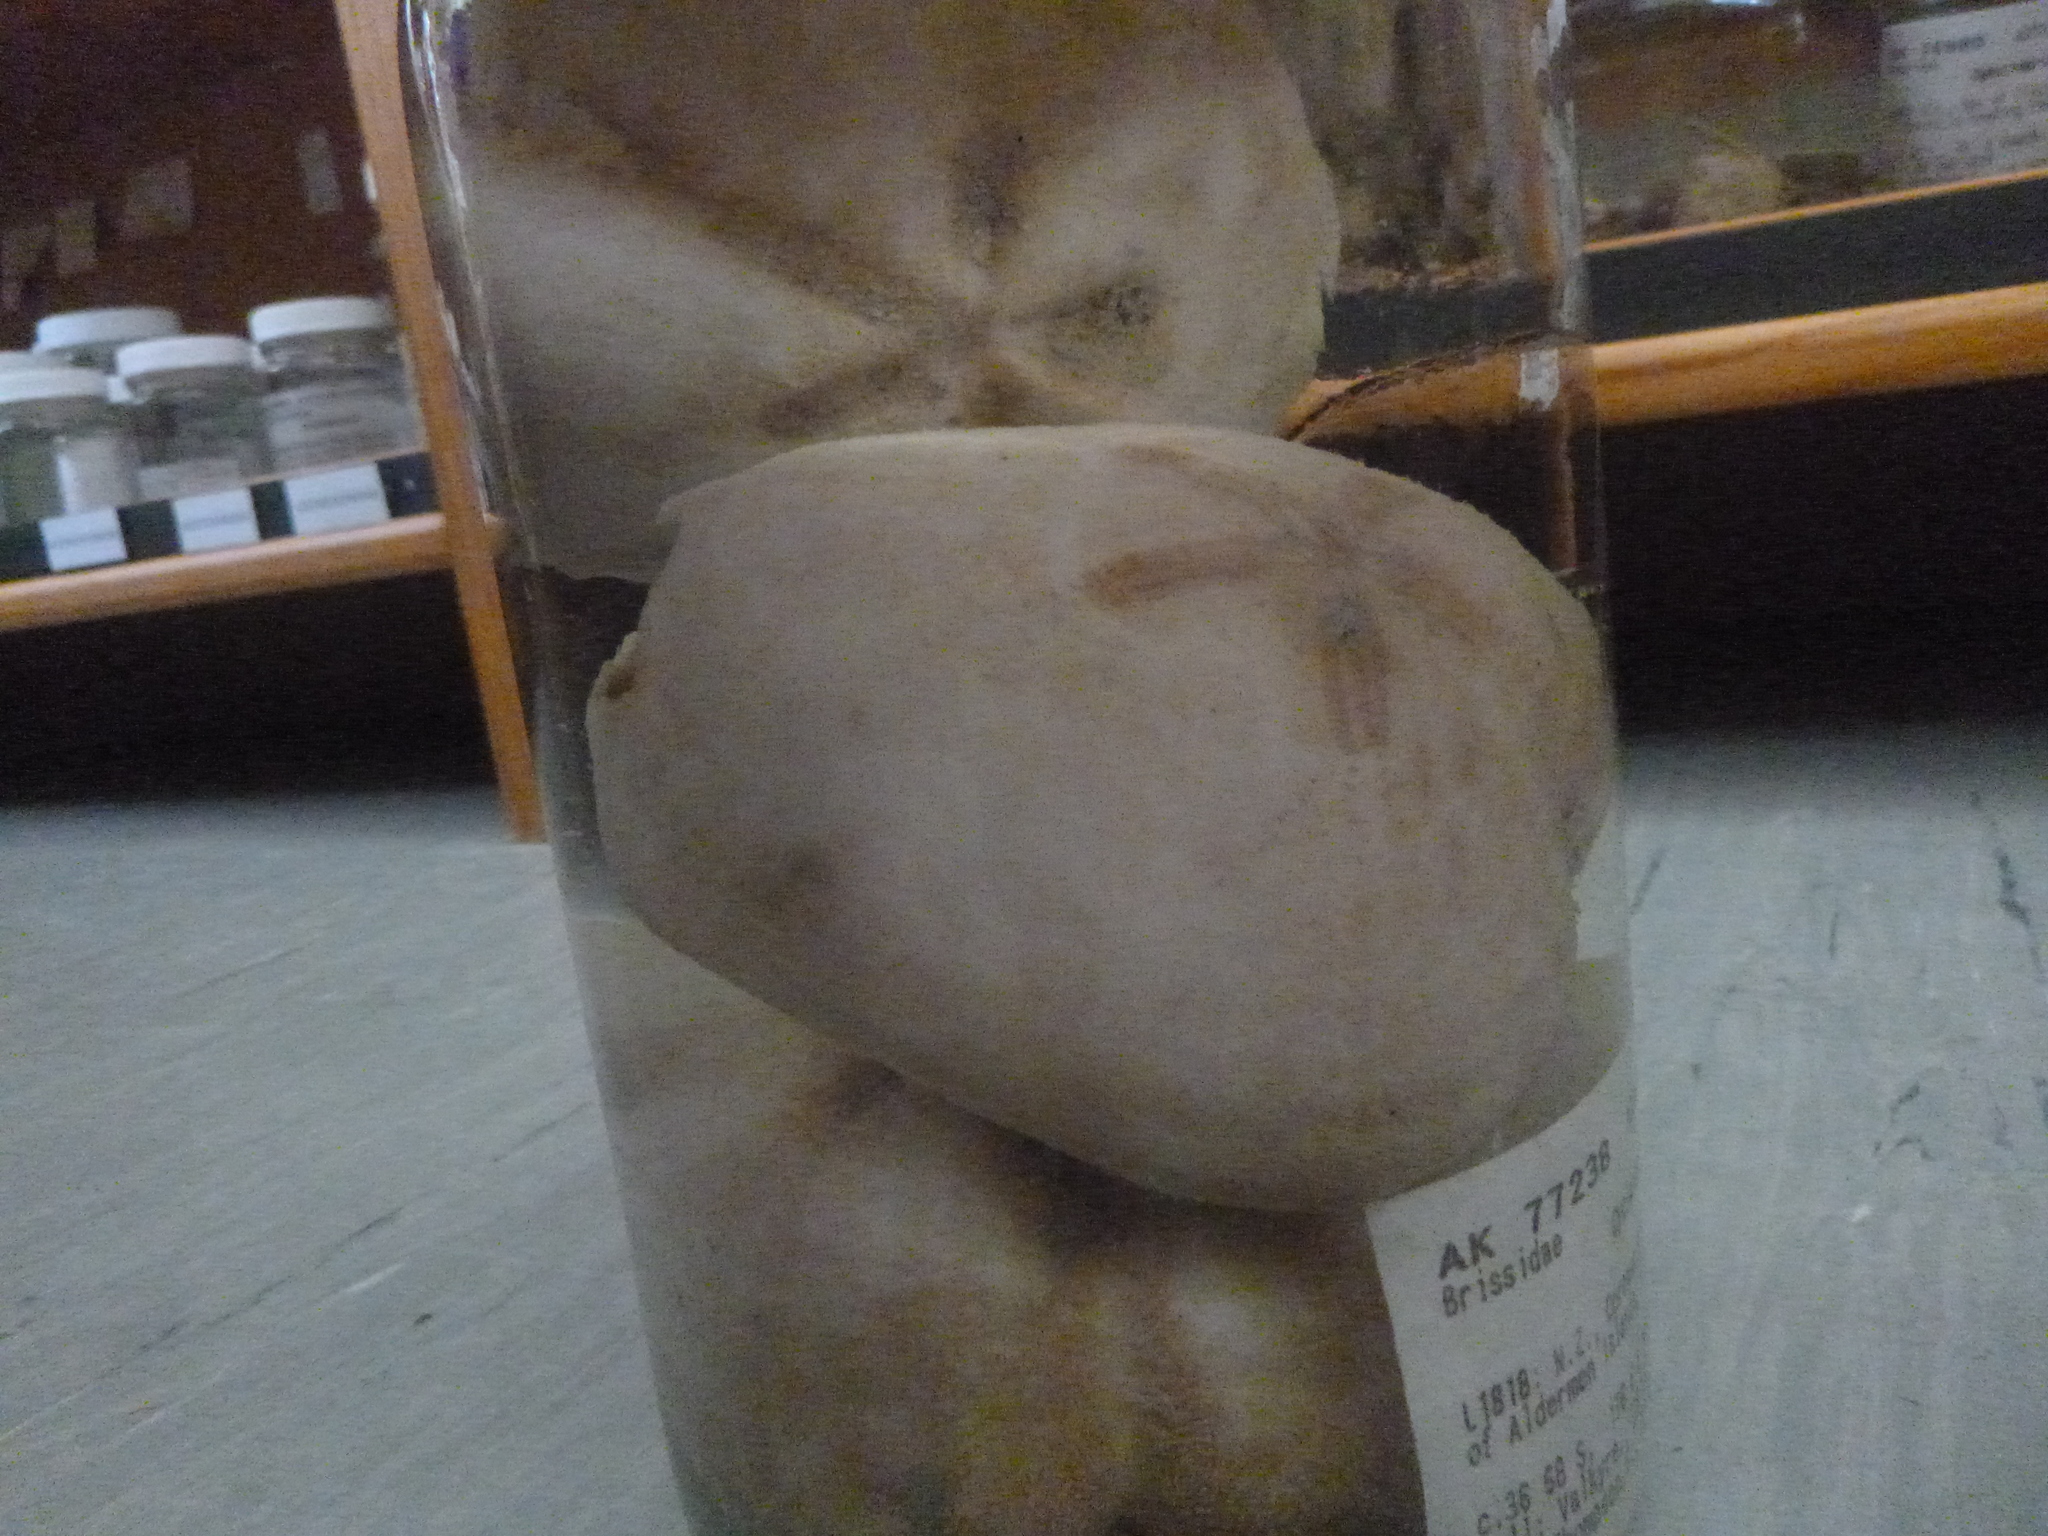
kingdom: Animalia
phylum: Echinodermata
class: Echinoidea
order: Spatangoida
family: Micrasteridae
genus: Cyclaster
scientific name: Cyclaster regalis
